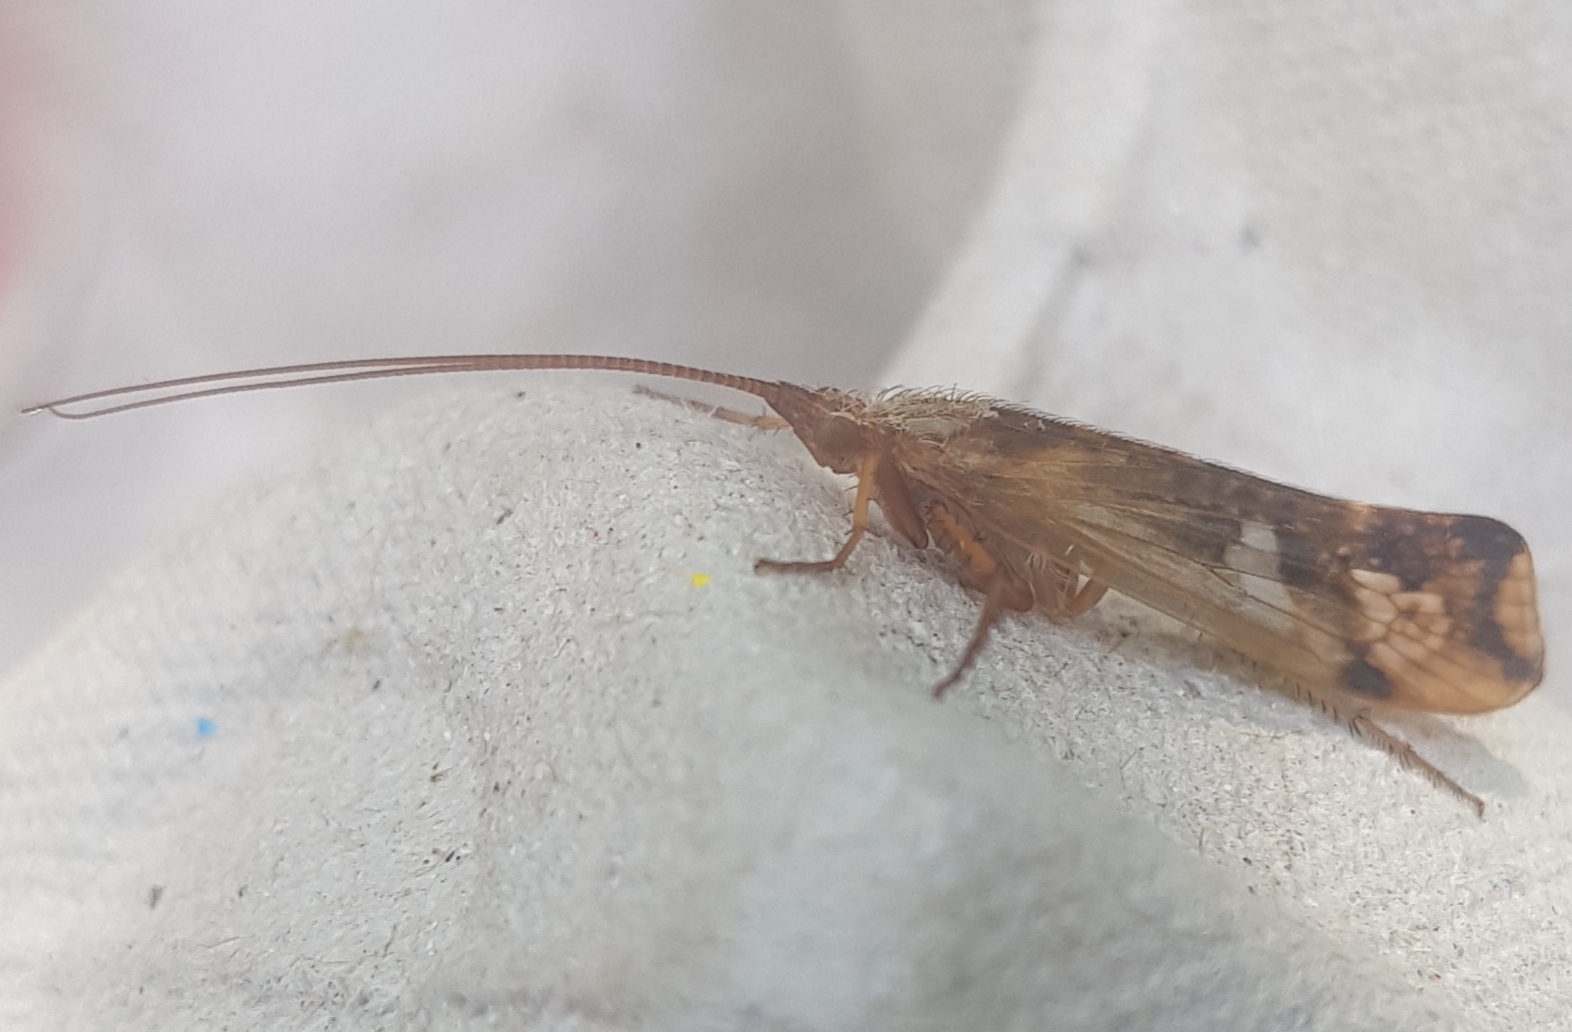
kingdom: Animalia
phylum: Arthropoda
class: Insecta
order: Trichoptera
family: Limnephilidae
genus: Limnephilus
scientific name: Limnephilus lunatus
